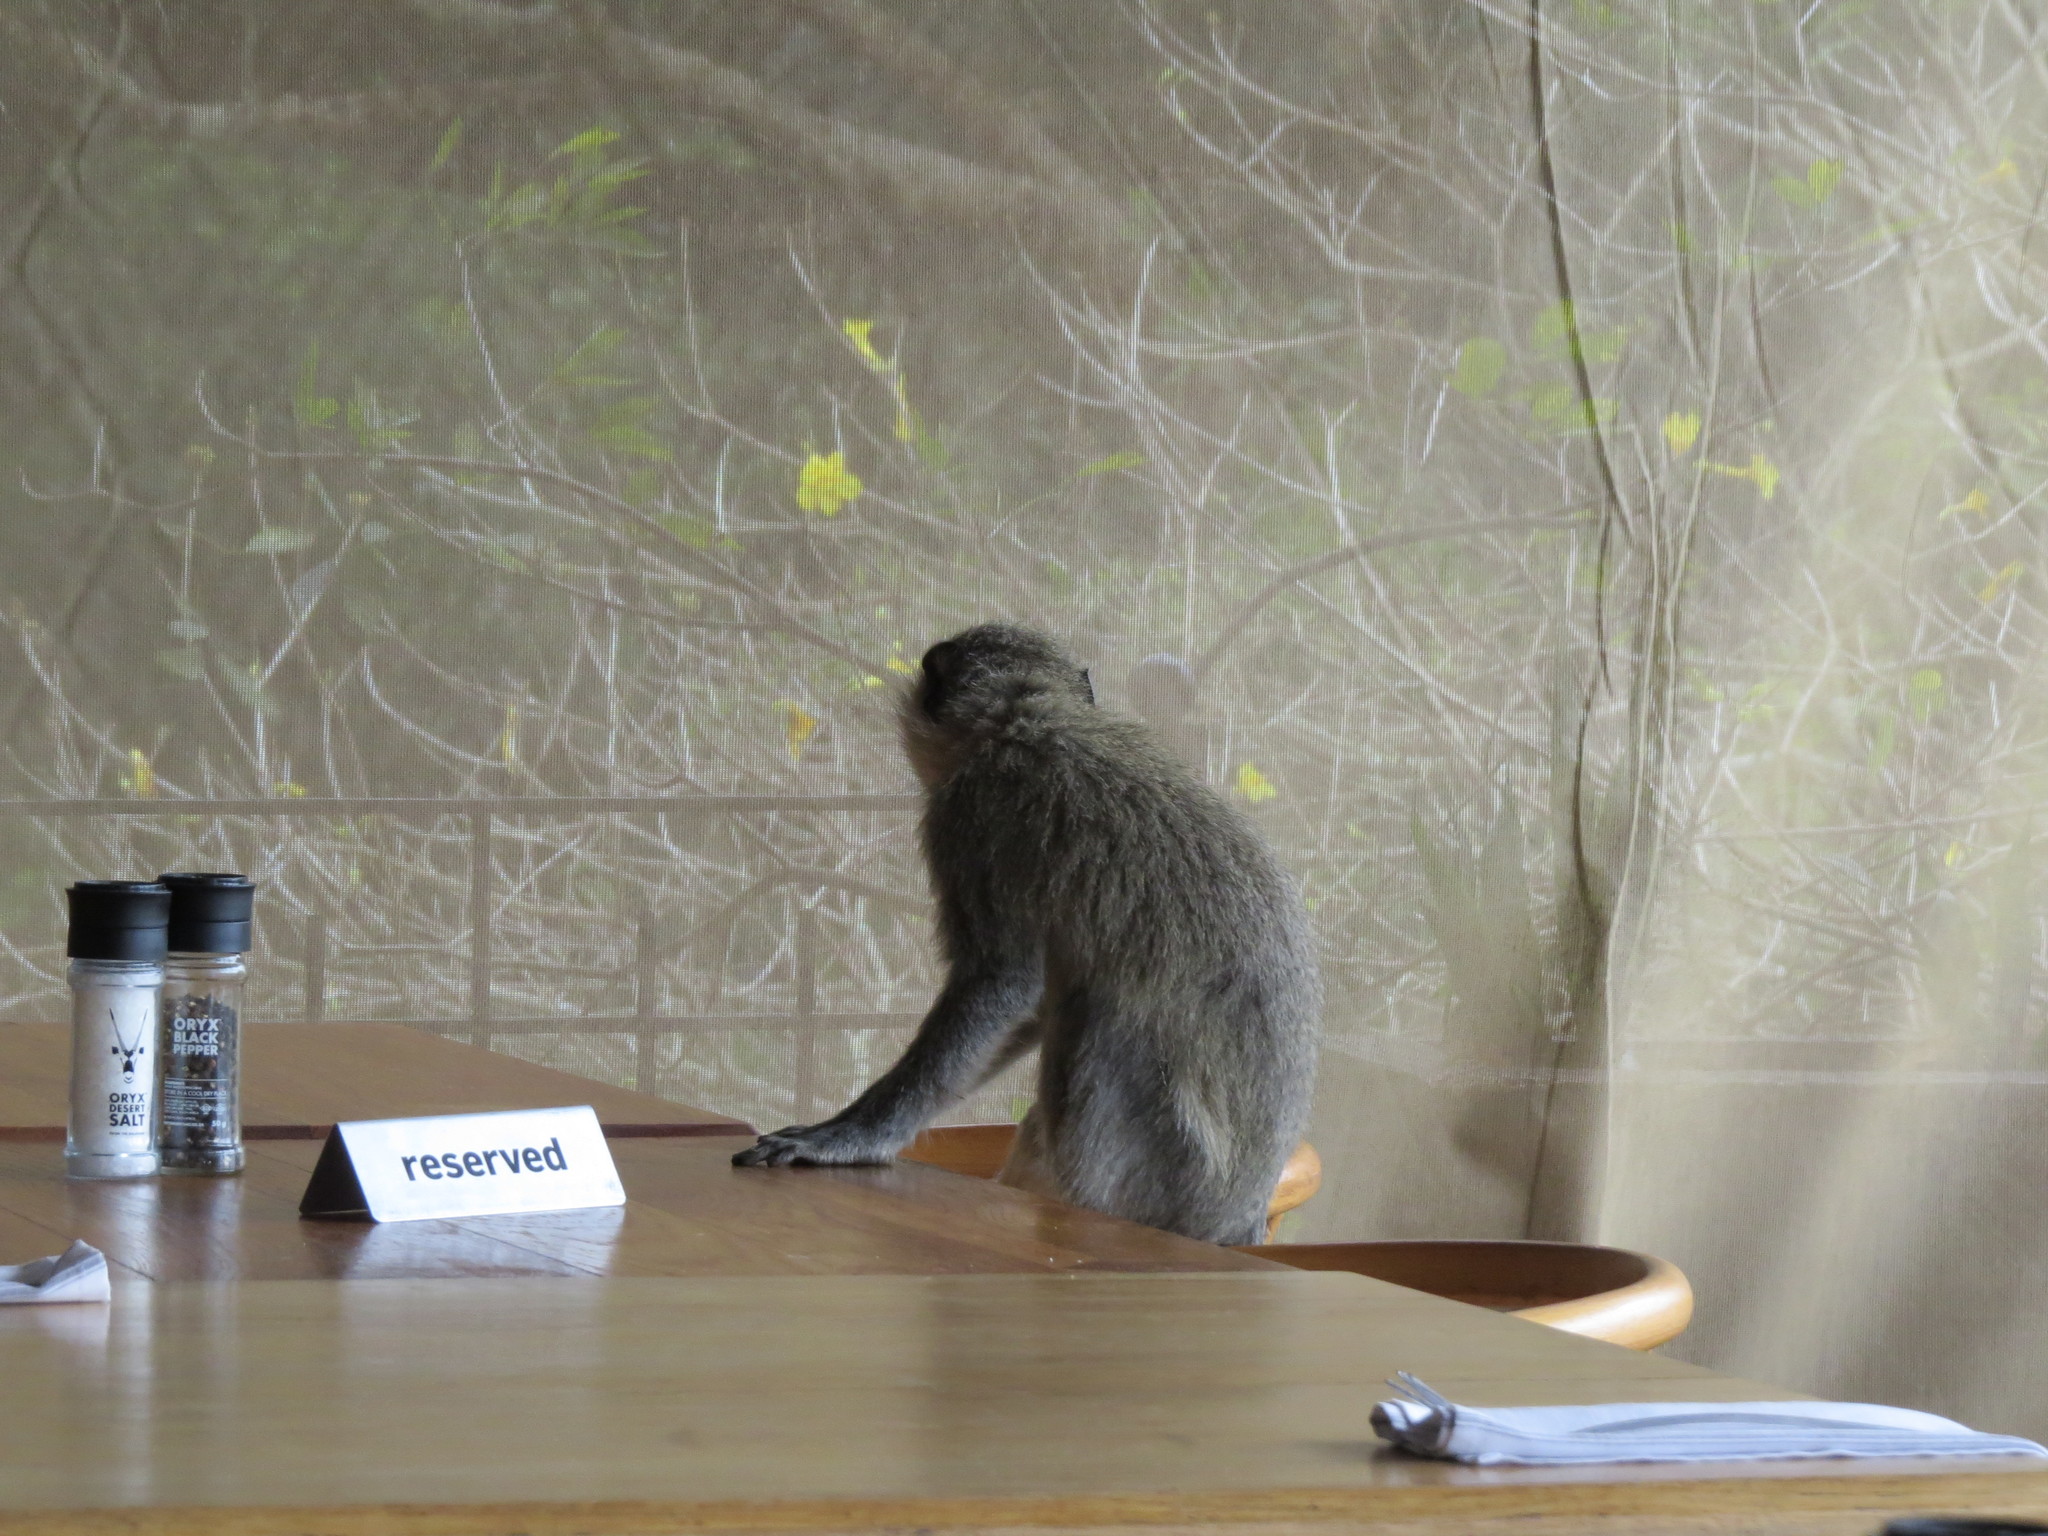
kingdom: Animalia
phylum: Chordata
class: Mammalia
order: Primates
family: Cercopithecidae
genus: Chlorocebus
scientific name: Chlorocebus pygerythrus
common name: Vervet monkey
